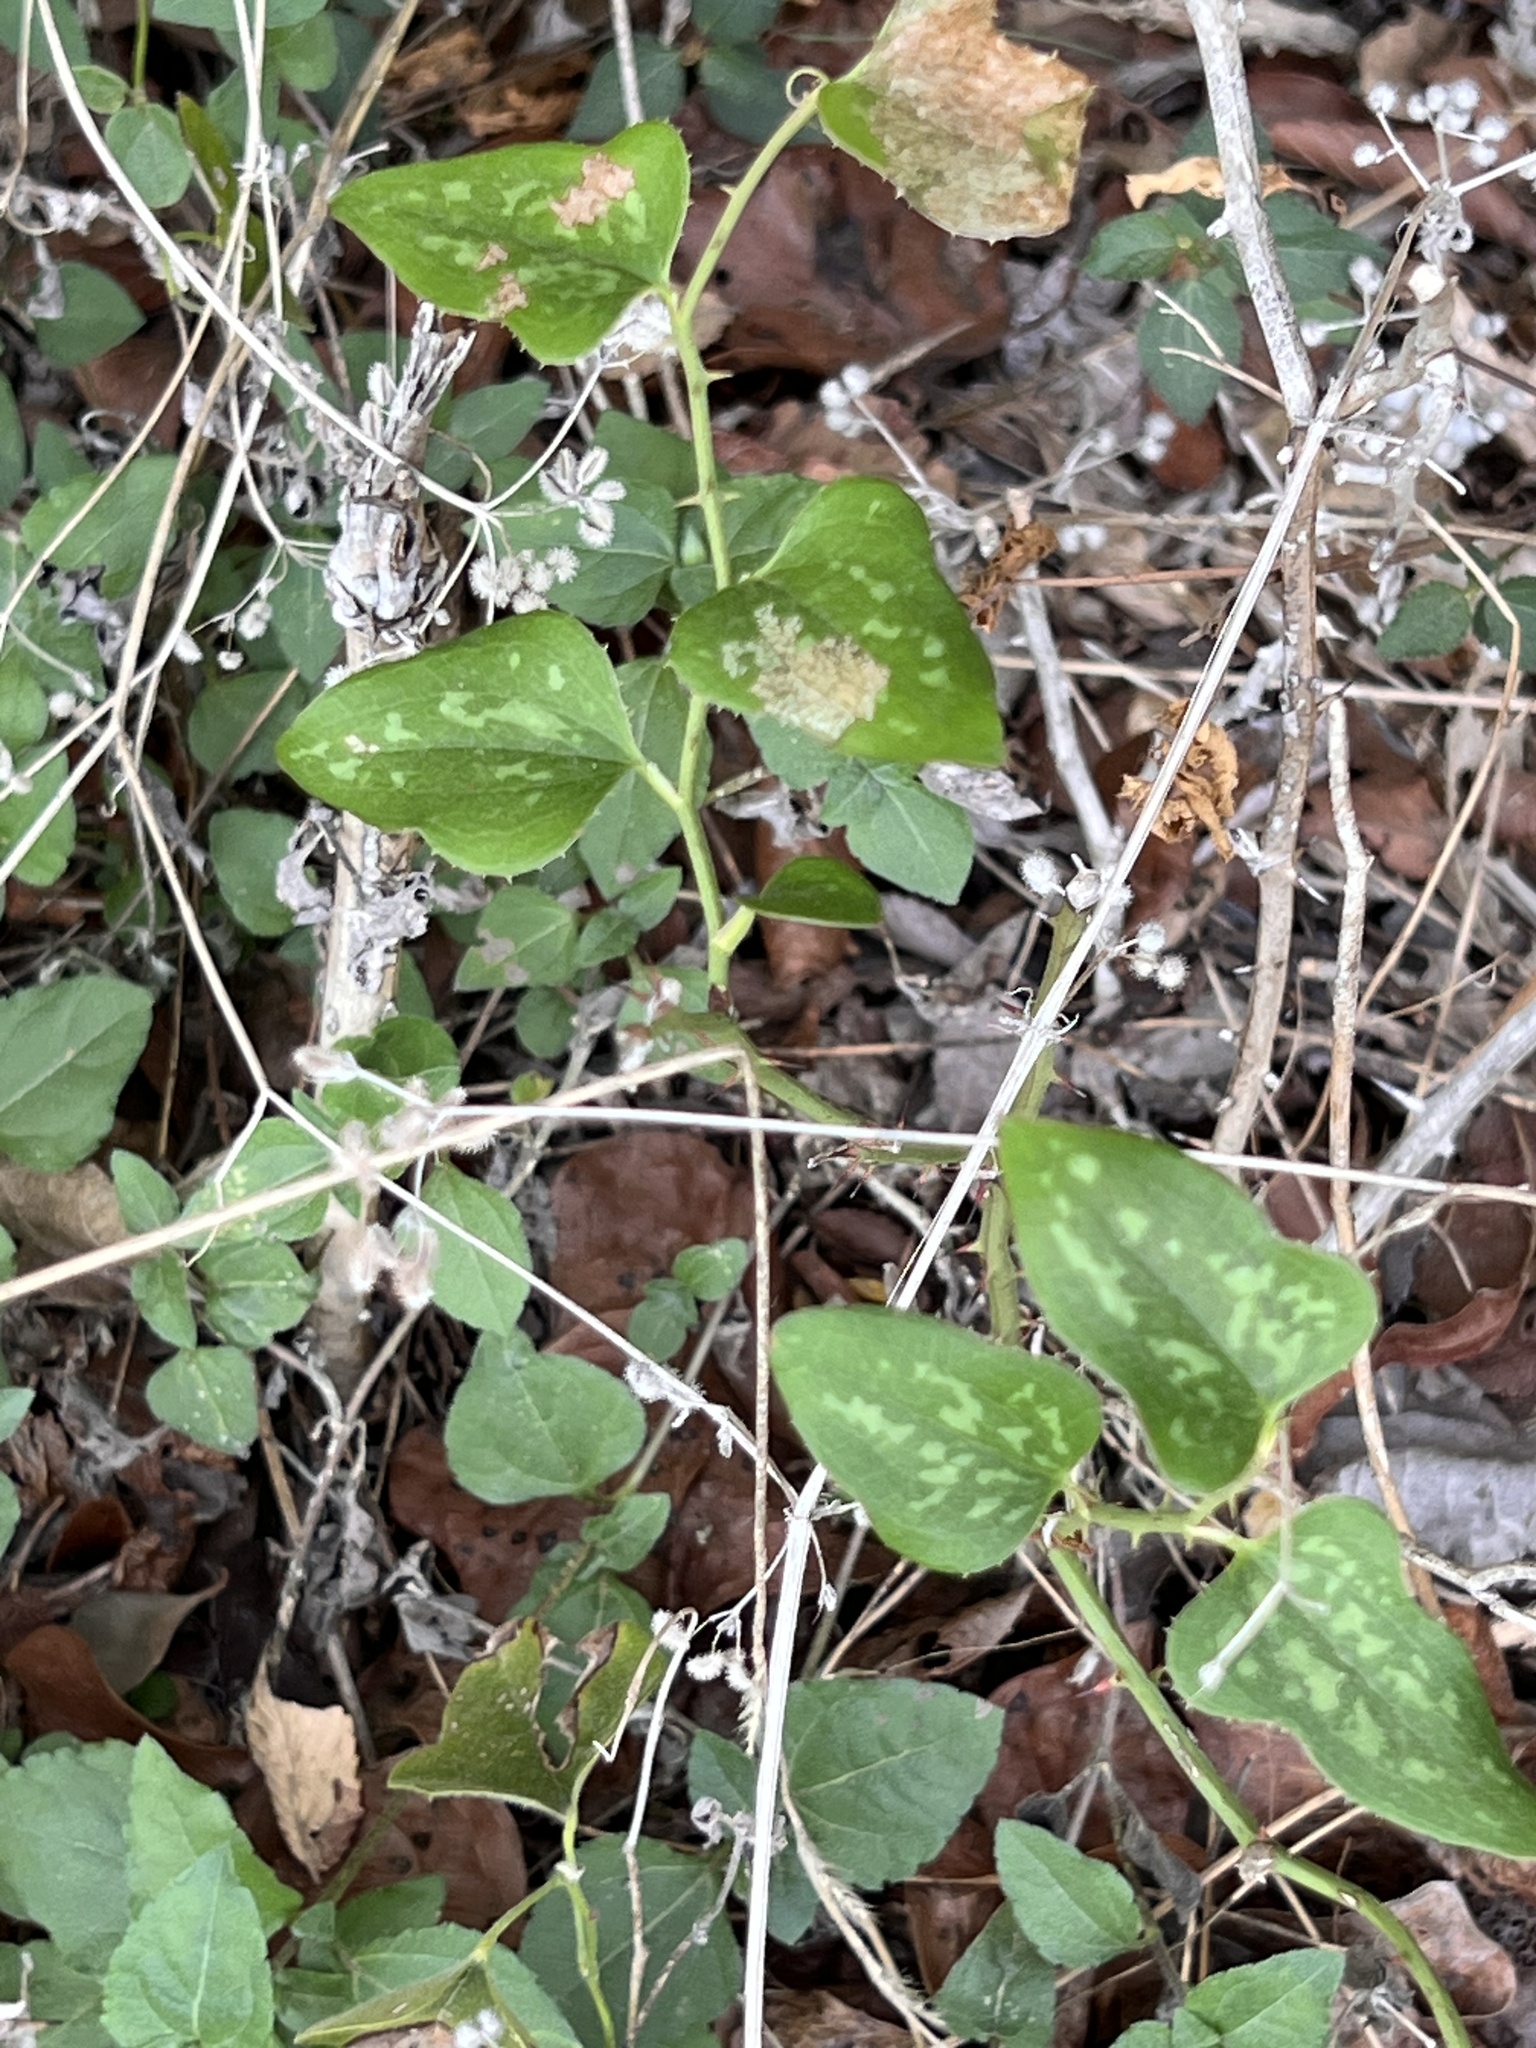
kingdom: Plantae
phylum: Tracheophyta
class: Liliopsida
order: Liliales
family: Smilacaceae
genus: Smilax
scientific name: Smilax bona-nox
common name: Catbrier
